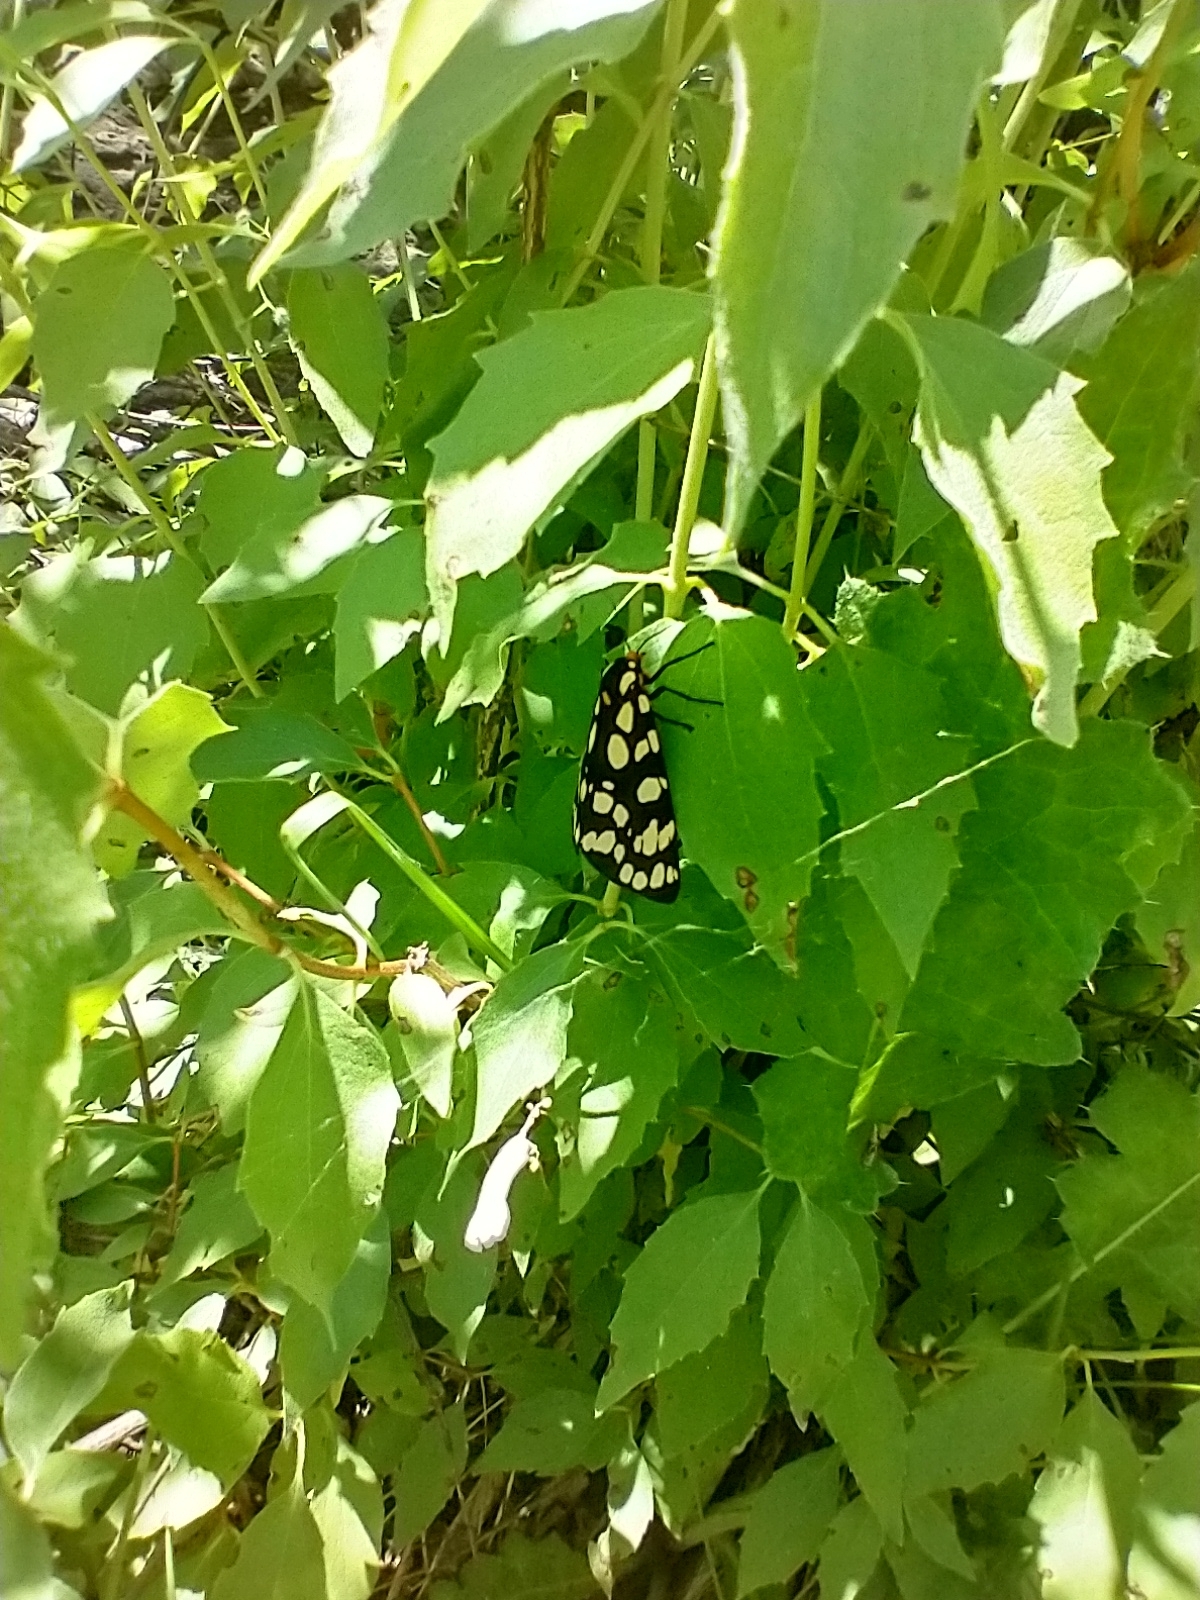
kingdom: Animalia
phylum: Arthropoda
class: Insecta
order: Lepidoptera
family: Erebidae
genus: Arctia
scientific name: Arctia tigrina
